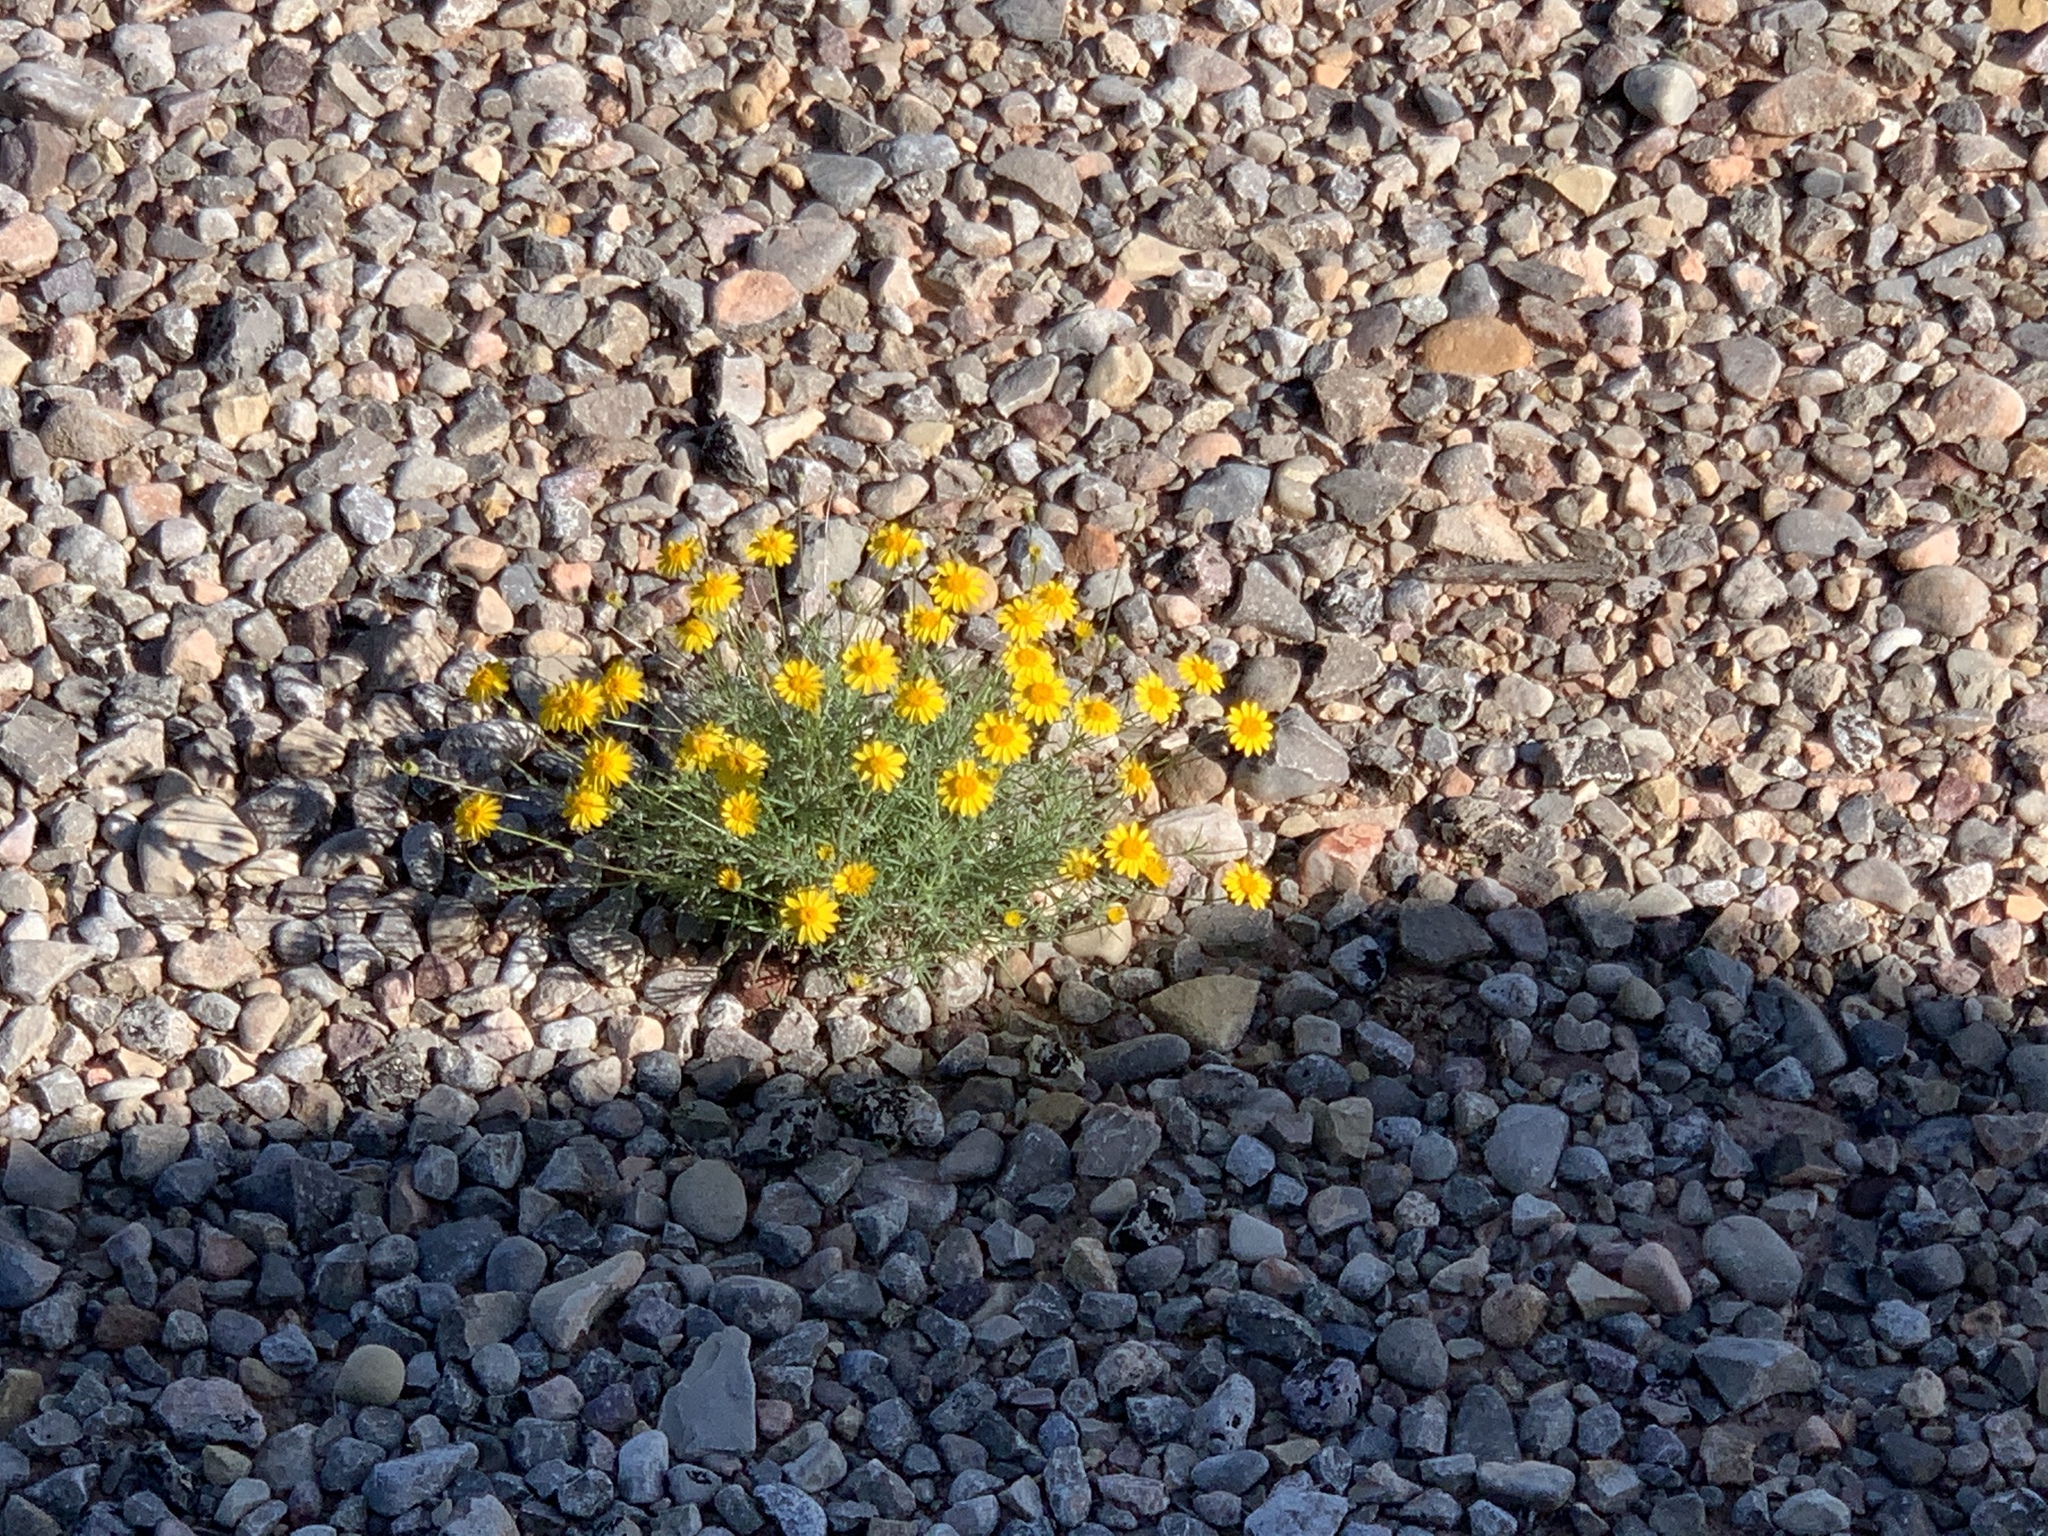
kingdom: Plantae
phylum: Tracheophyta
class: Magnoliopsida
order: Asterales
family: Asteraceae
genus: Thymophylla
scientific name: Thymophylla pentachaeta
